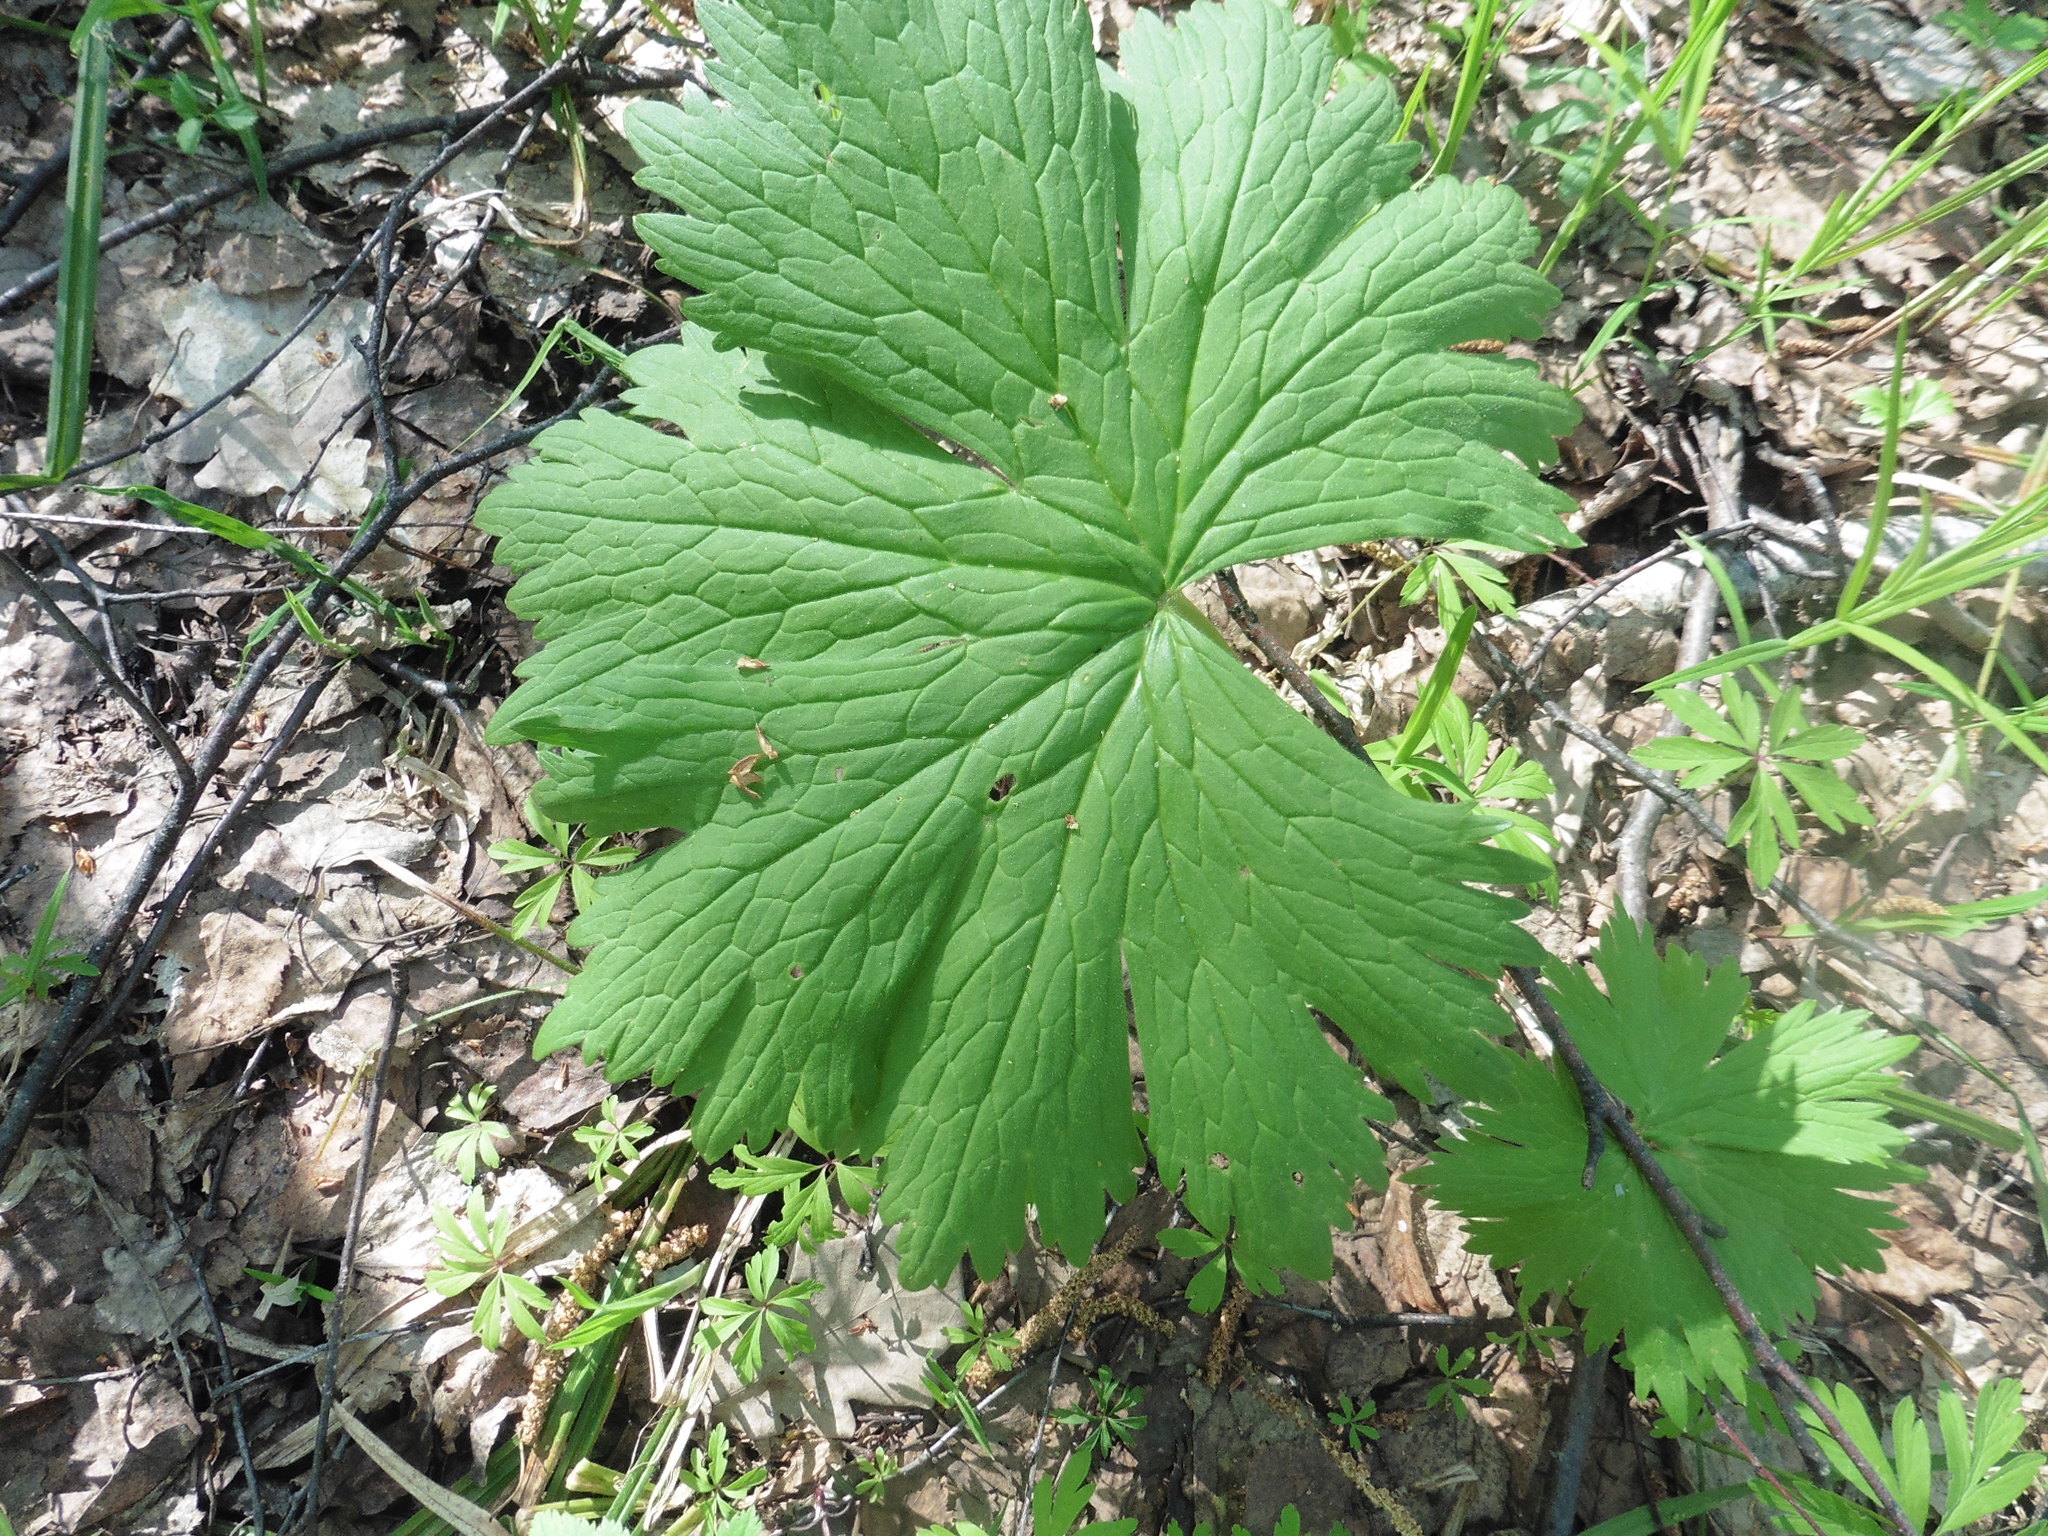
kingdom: Plantae
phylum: Tracheophyta
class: Magnoliopsida
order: Ranunculales
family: Ranunculaceae
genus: Aconitum
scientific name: Aconitum septentrionale
